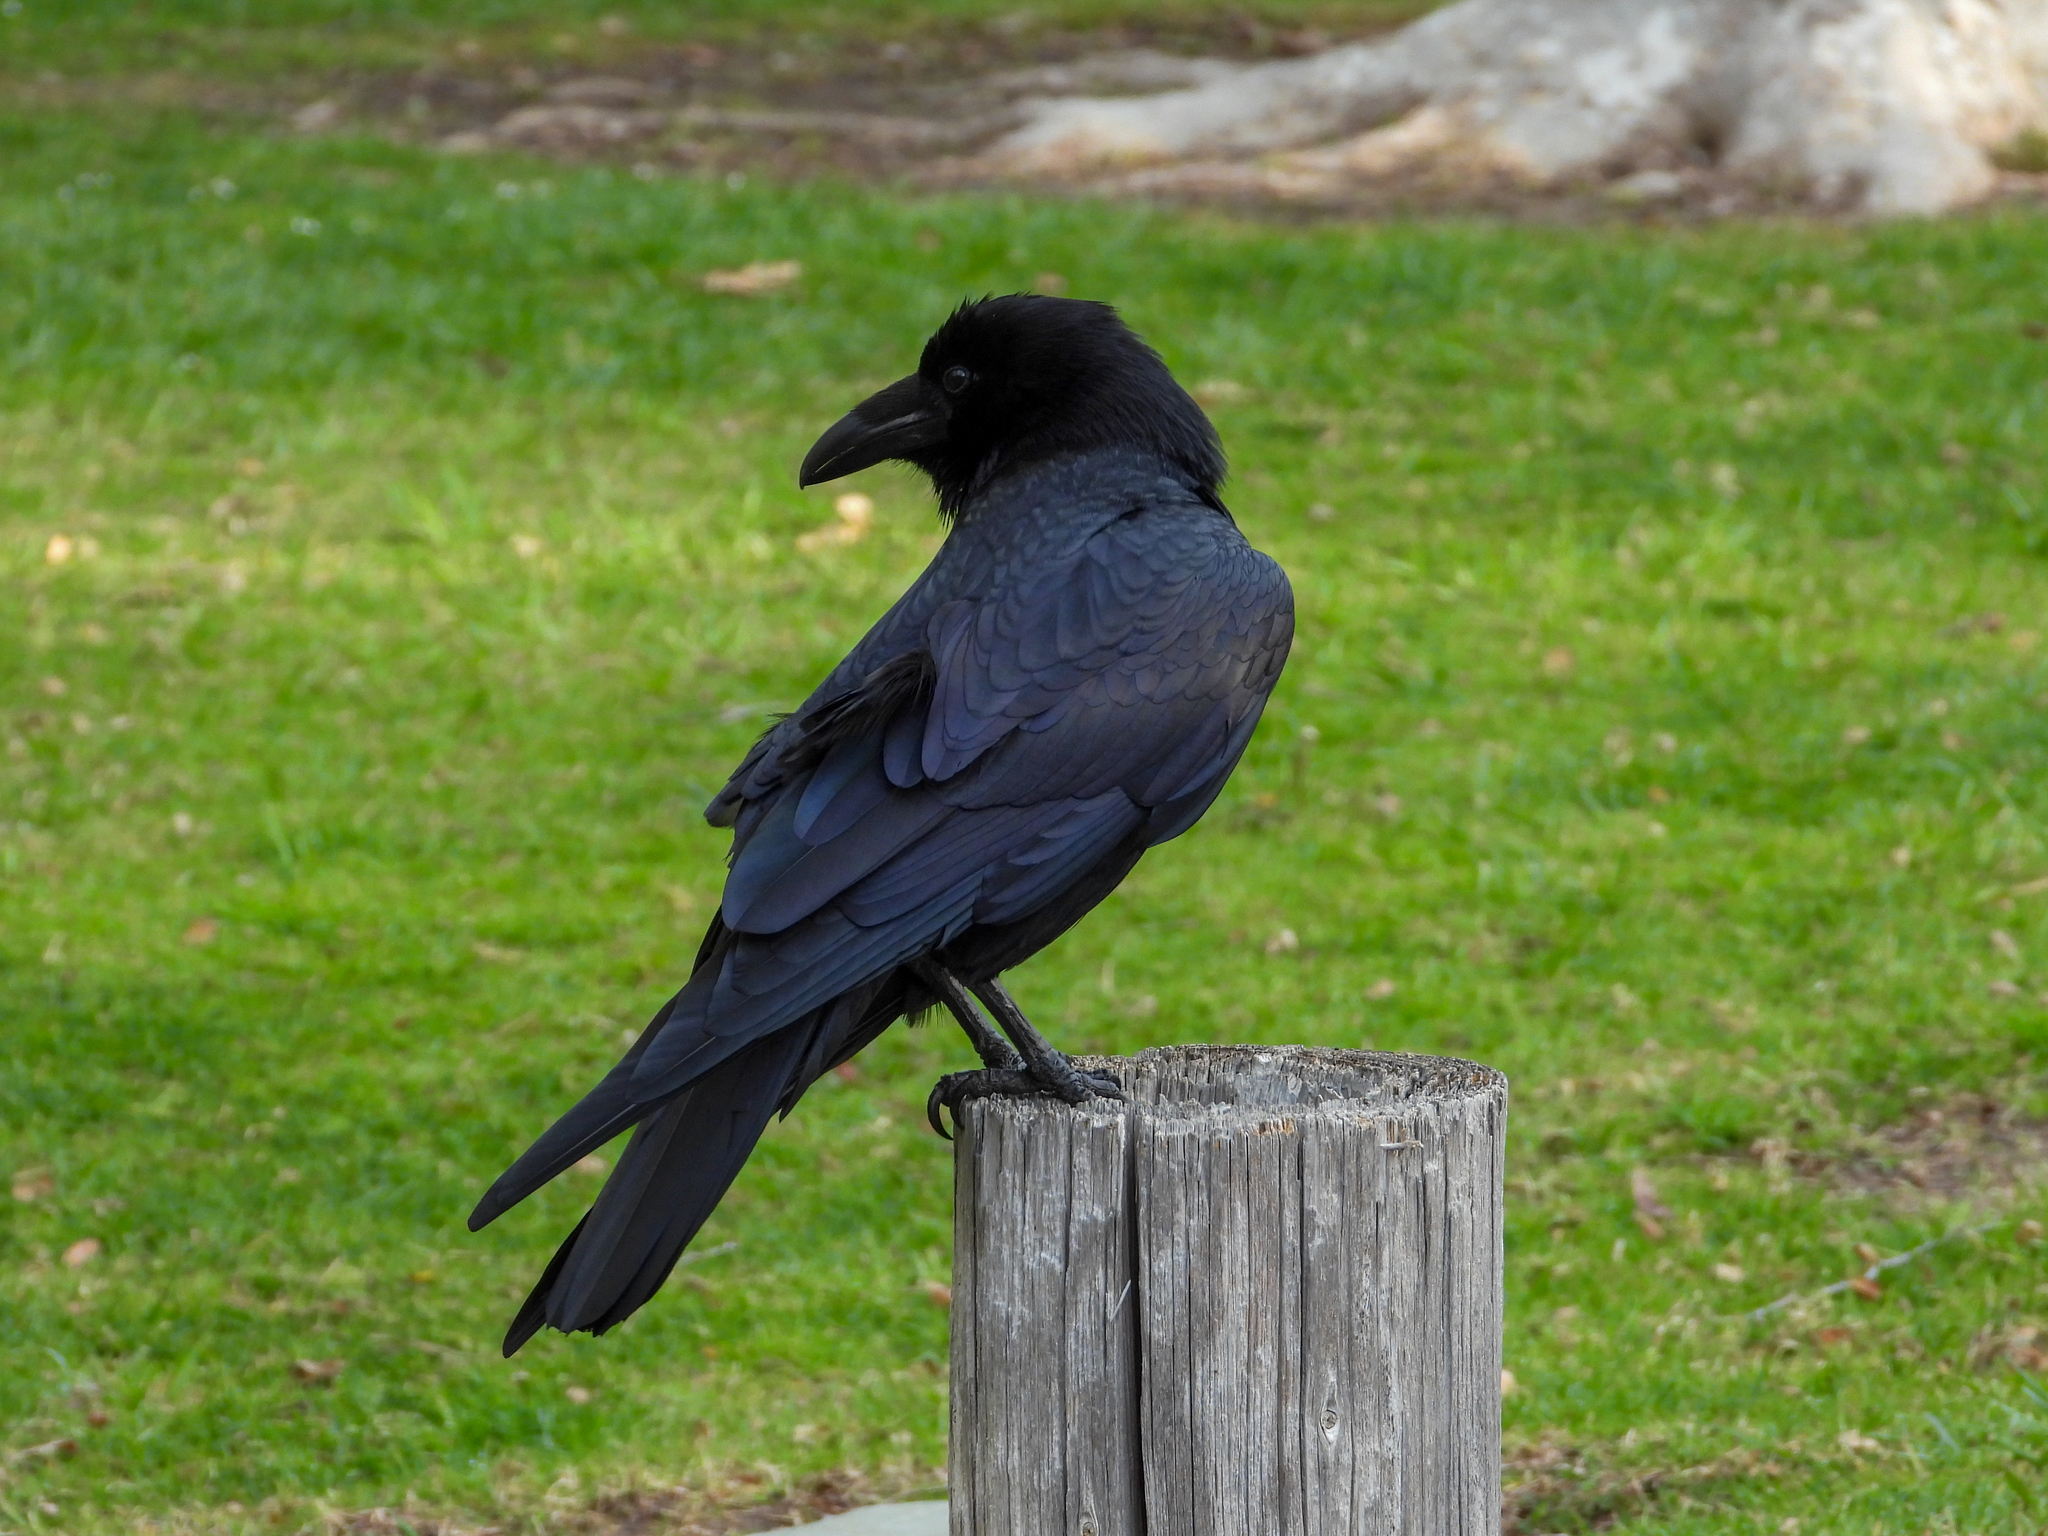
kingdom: Animalia
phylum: Chordata
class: Aves
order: Passeriformes
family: Corvidae
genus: Corvus
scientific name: Corvus corax
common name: Common raven
